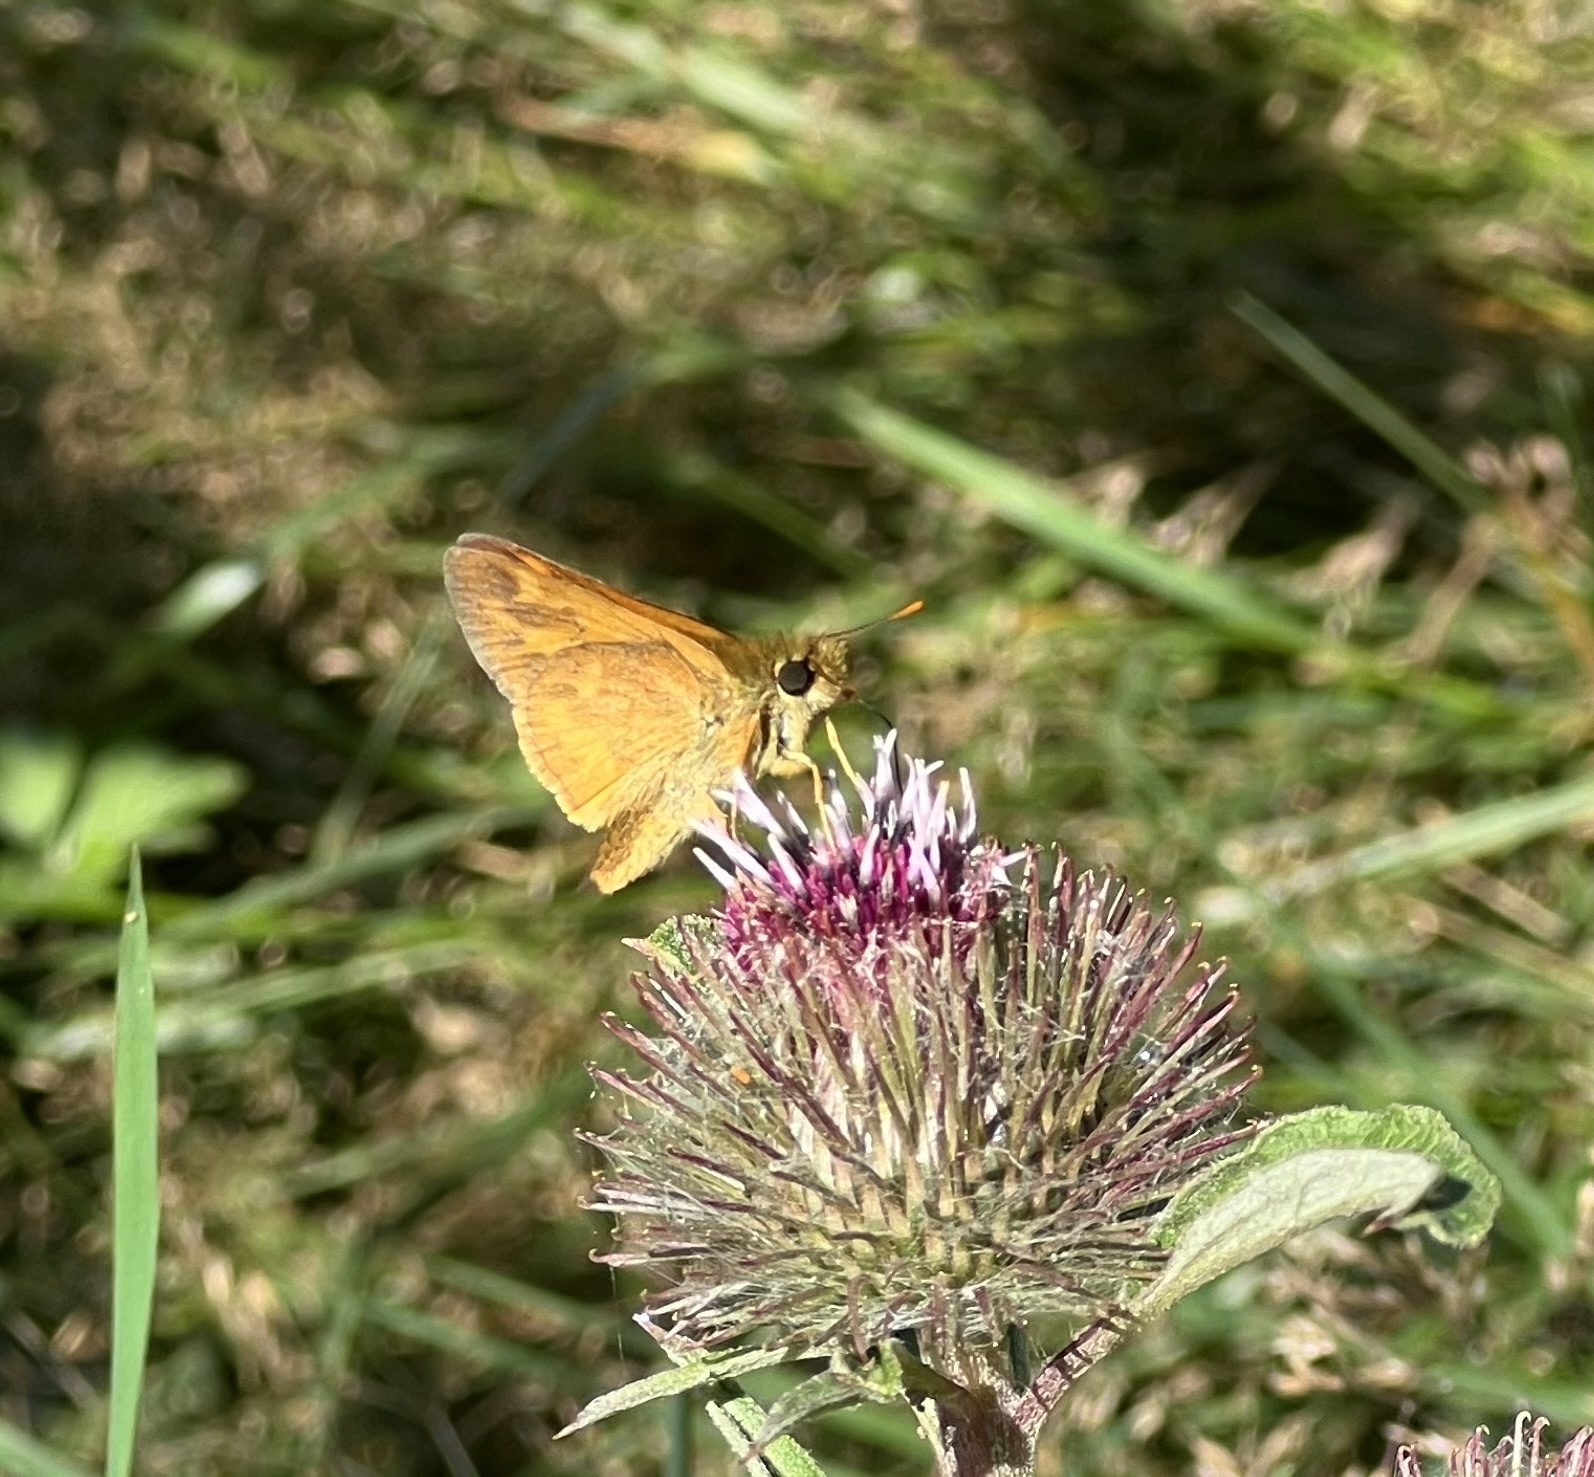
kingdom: Animalia
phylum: Arthropoda
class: Insecta
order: Lepidoptera
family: Hesperiidae
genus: Ochlodes
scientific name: Ochlodes sylvanoides
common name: Woodland skipper
